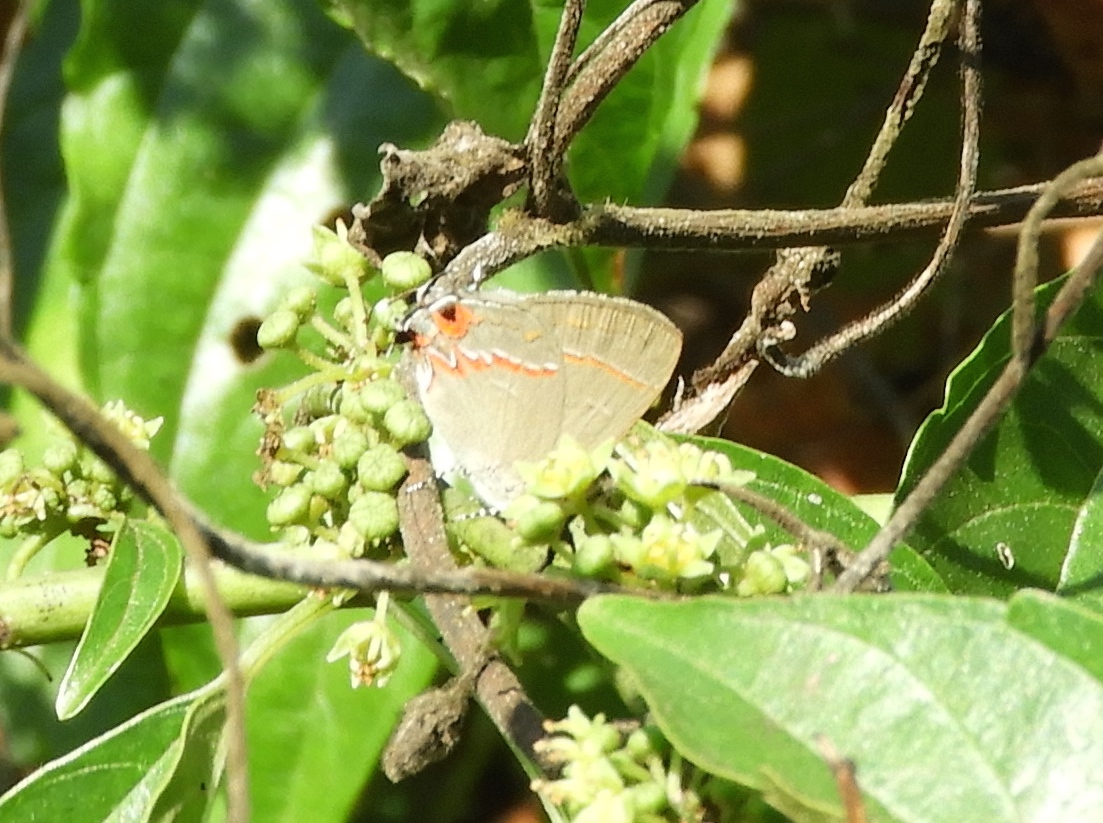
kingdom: Animalia
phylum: Arthropoda
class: Insecta
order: Lepidoptera
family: Lycaenidae
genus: Electrostrymon
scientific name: Electrostrymon
